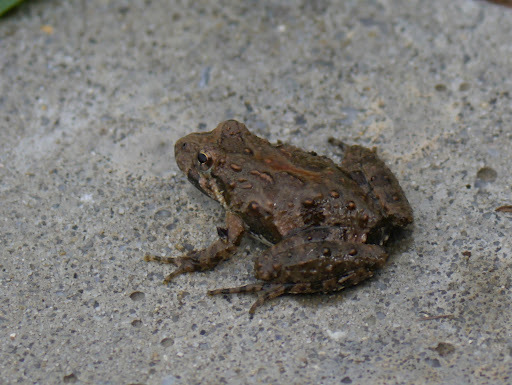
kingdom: Animalia
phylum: Chordata
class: Amphibia
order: Anura
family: Hylidae
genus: Acris
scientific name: Acris crepitans
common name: Northern cricket frog
